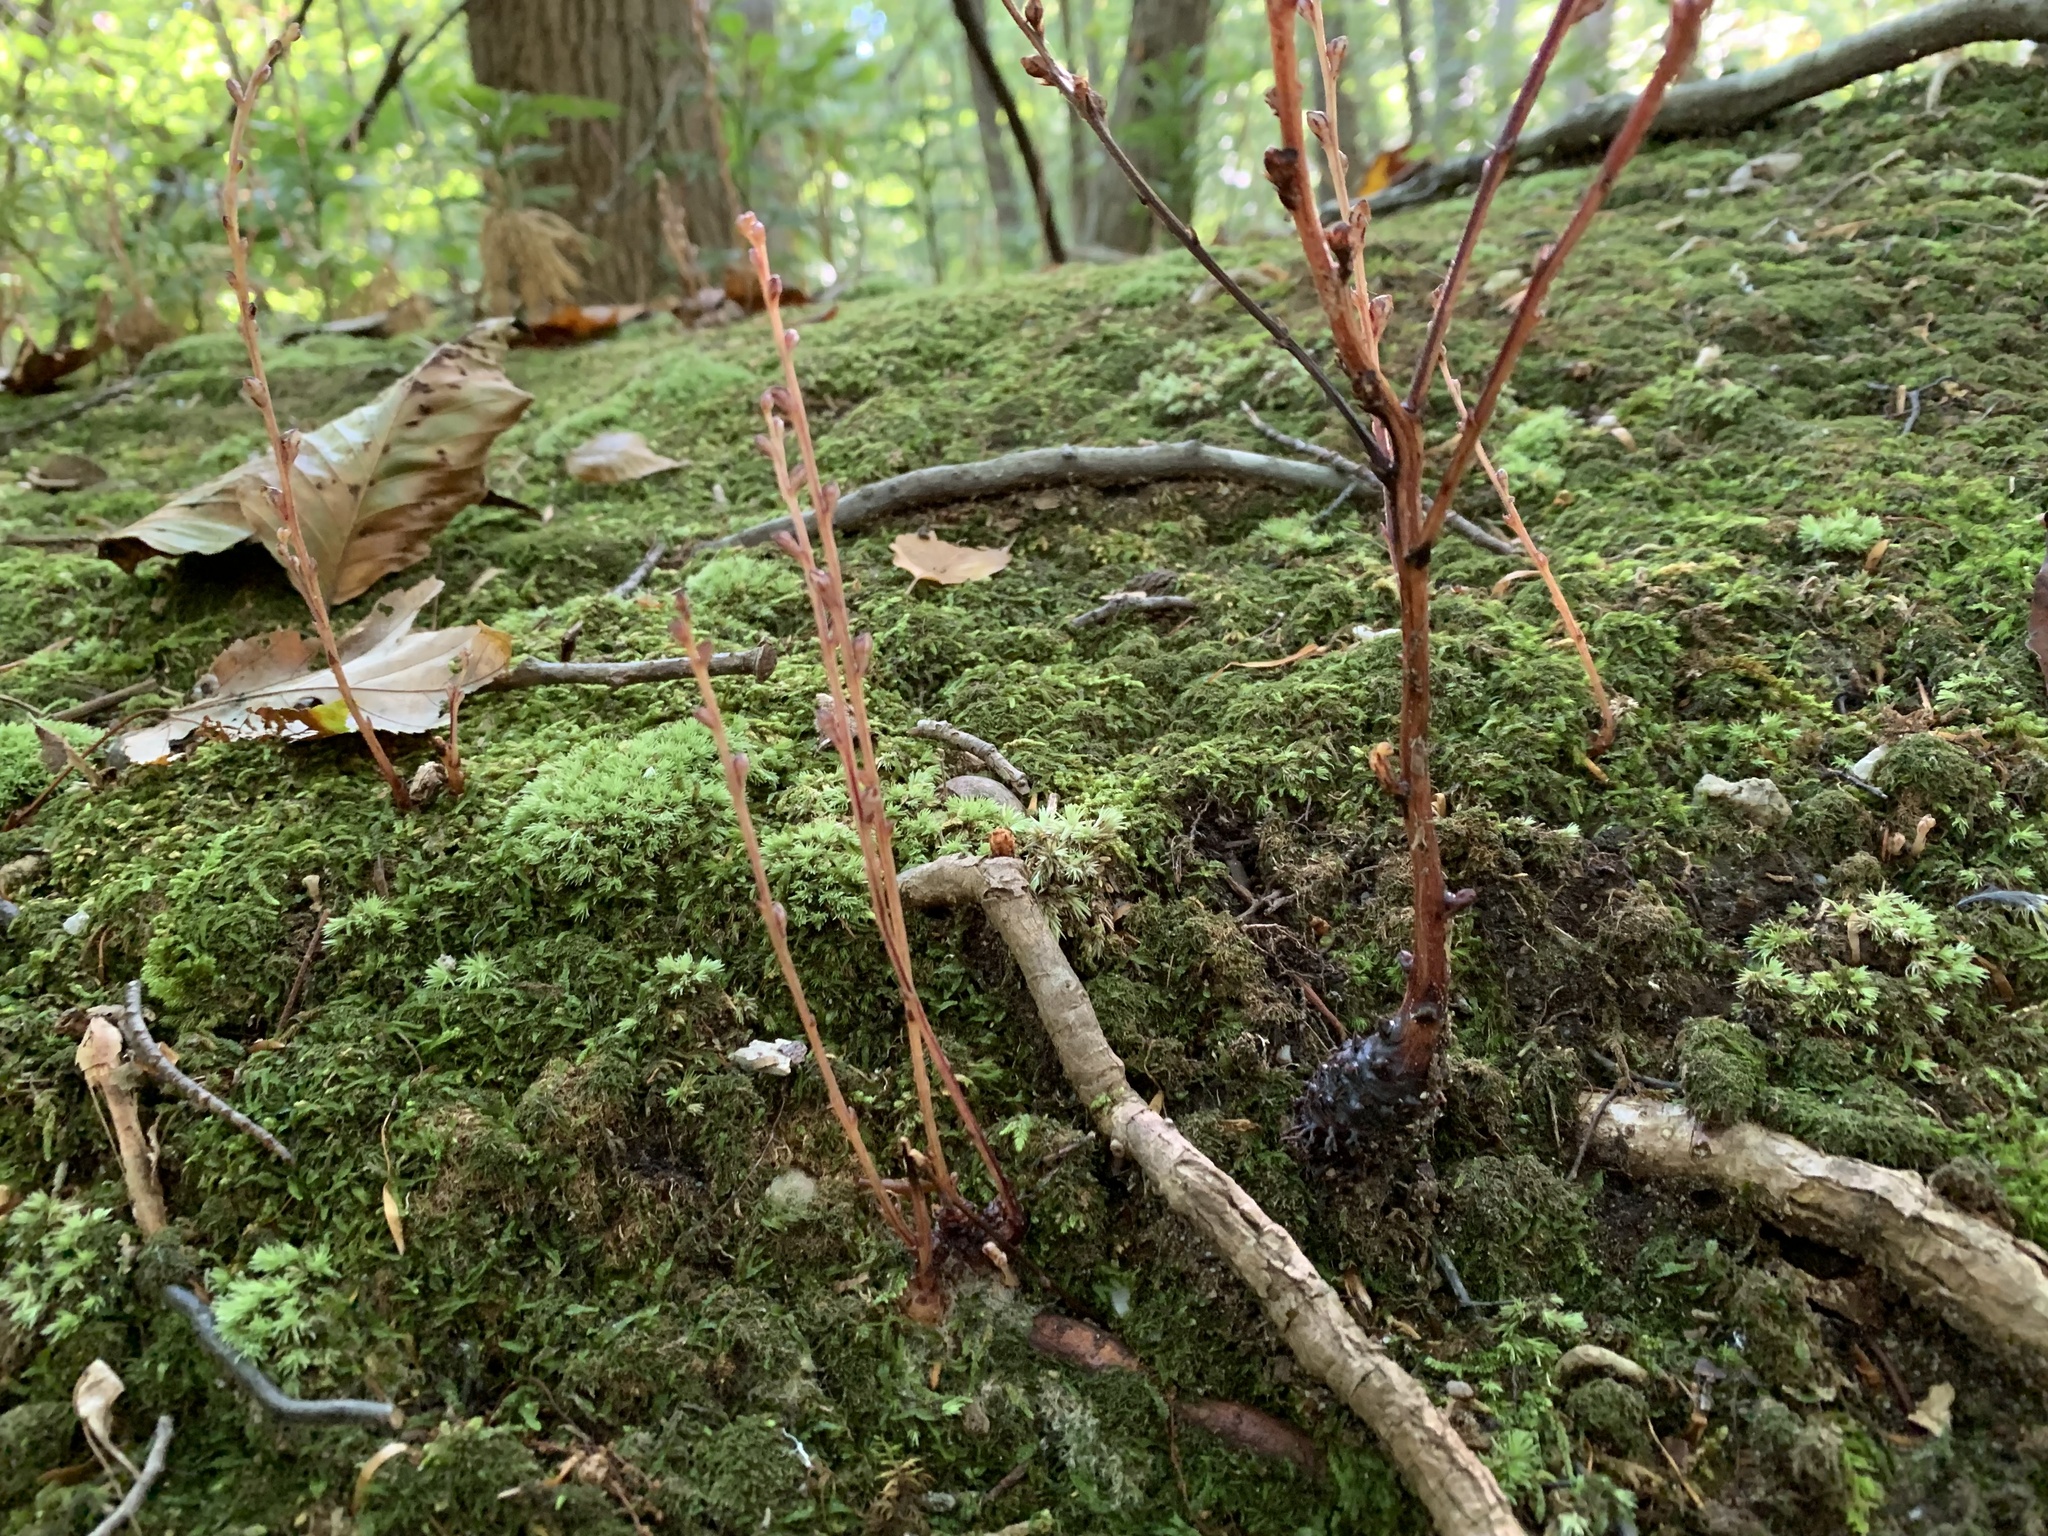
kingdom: Plantae
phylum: Tracheophyta
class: Magnoliopsida
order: Lamiales
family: Orobanchaceae
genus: Epifagus
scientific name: Epifagus virginiana
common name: Beechdrops
